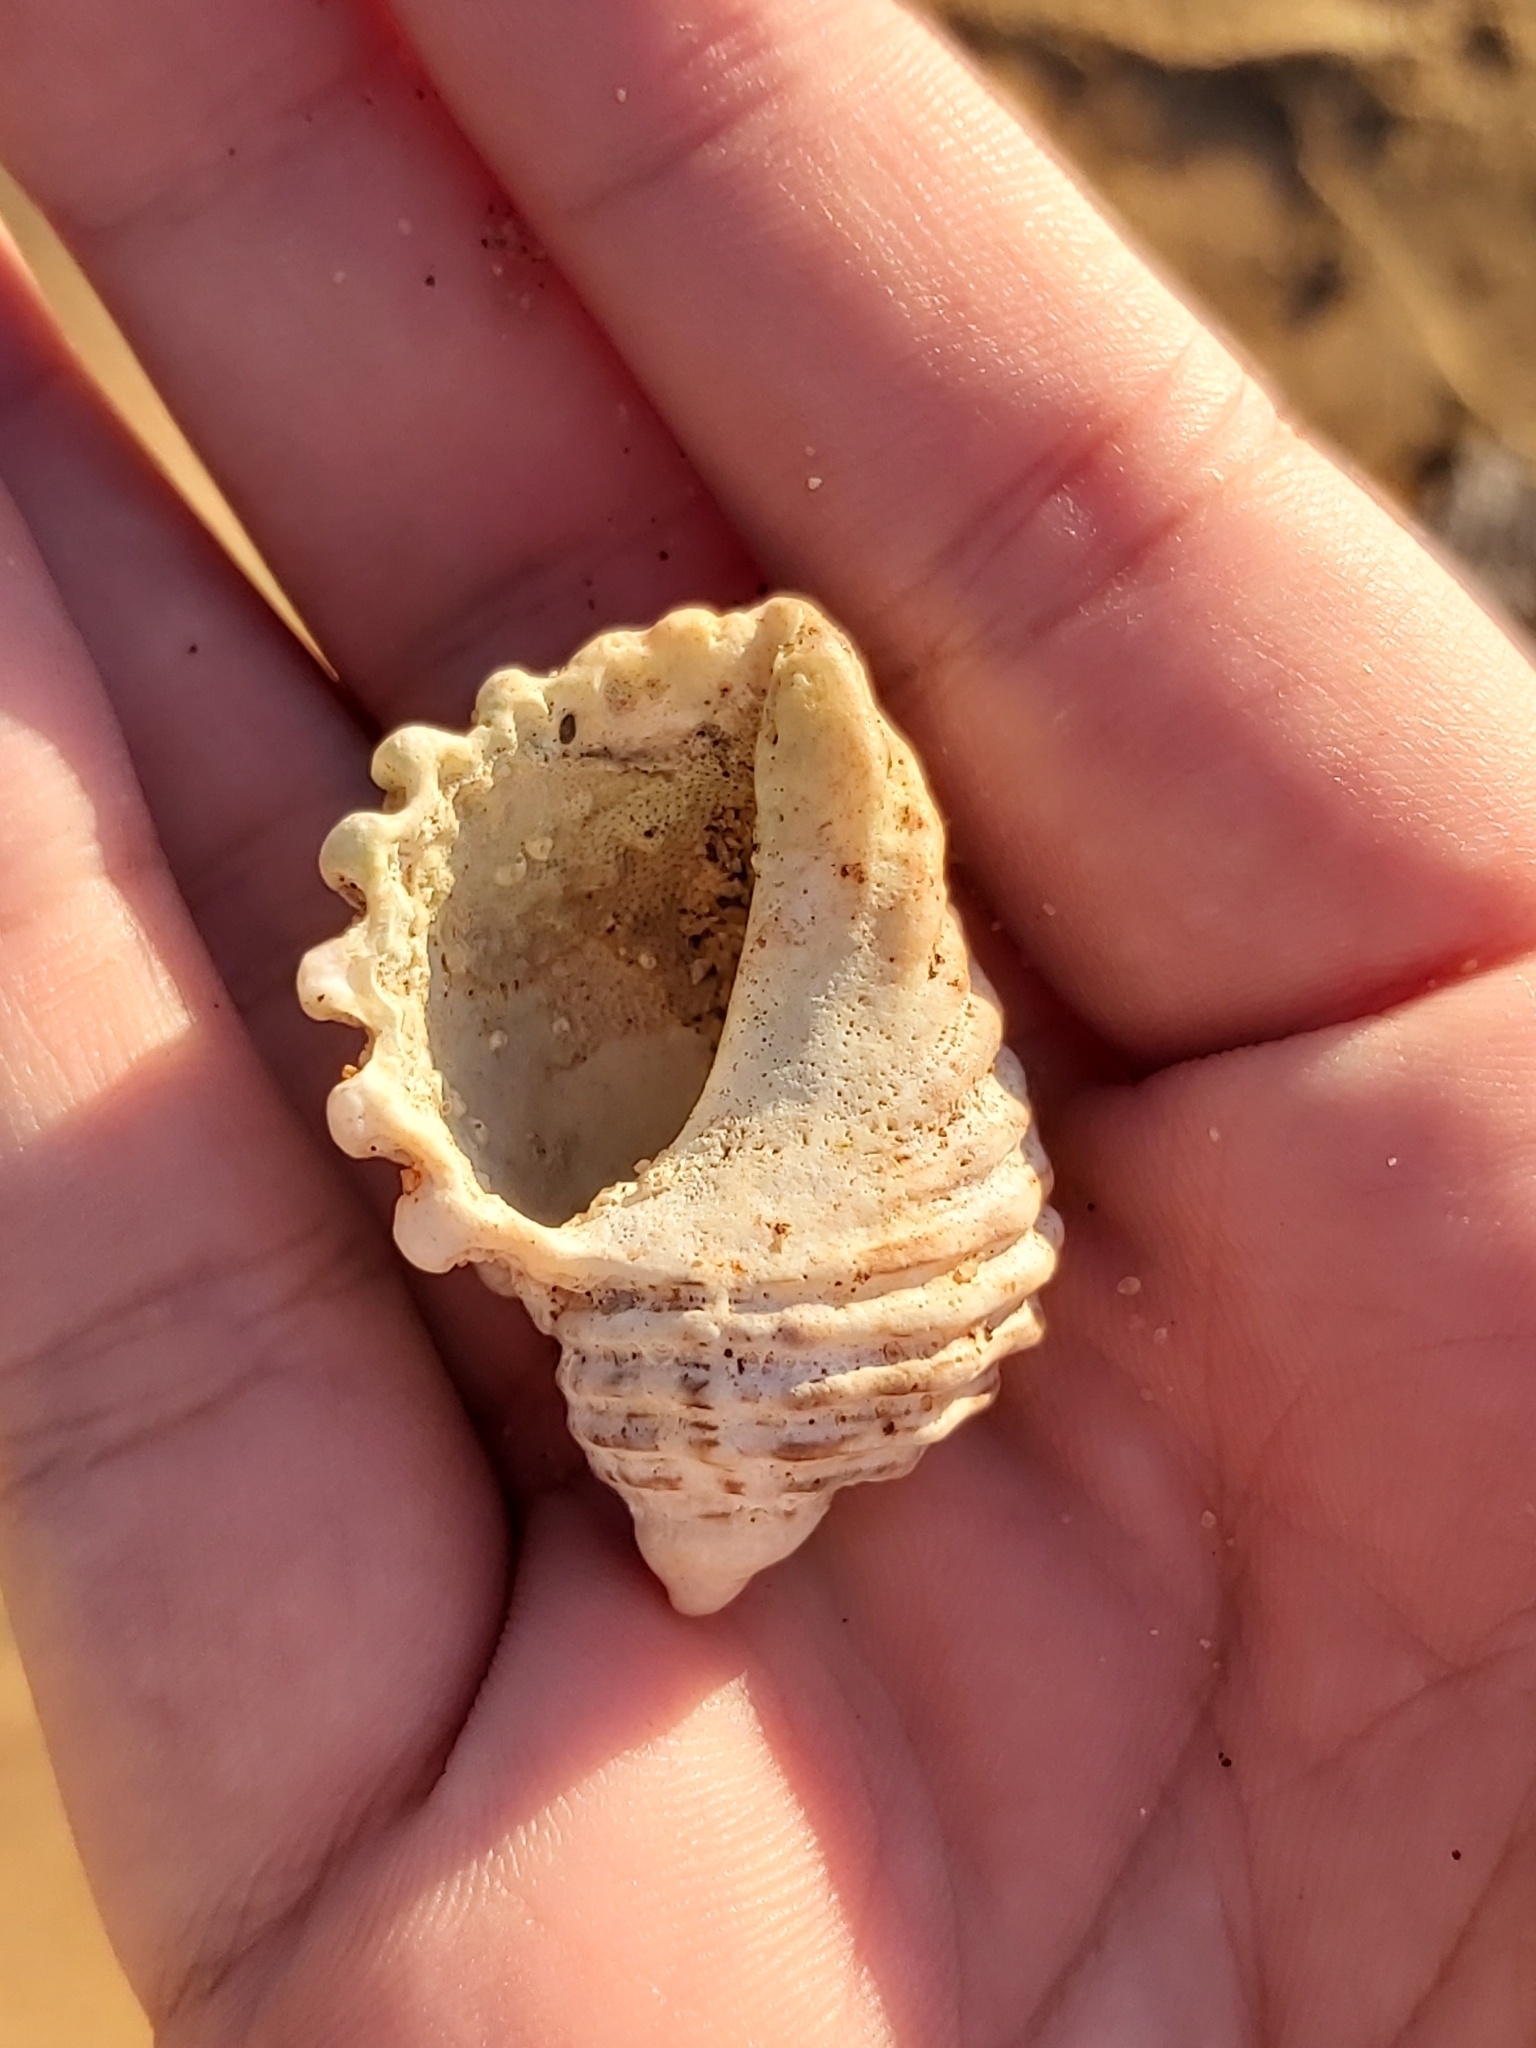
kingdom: Animalia
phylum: Mollusca
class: Gastropoda
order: Neogastropoda
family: Muricidae
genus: Dicathais
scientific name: Dicathais orbita
